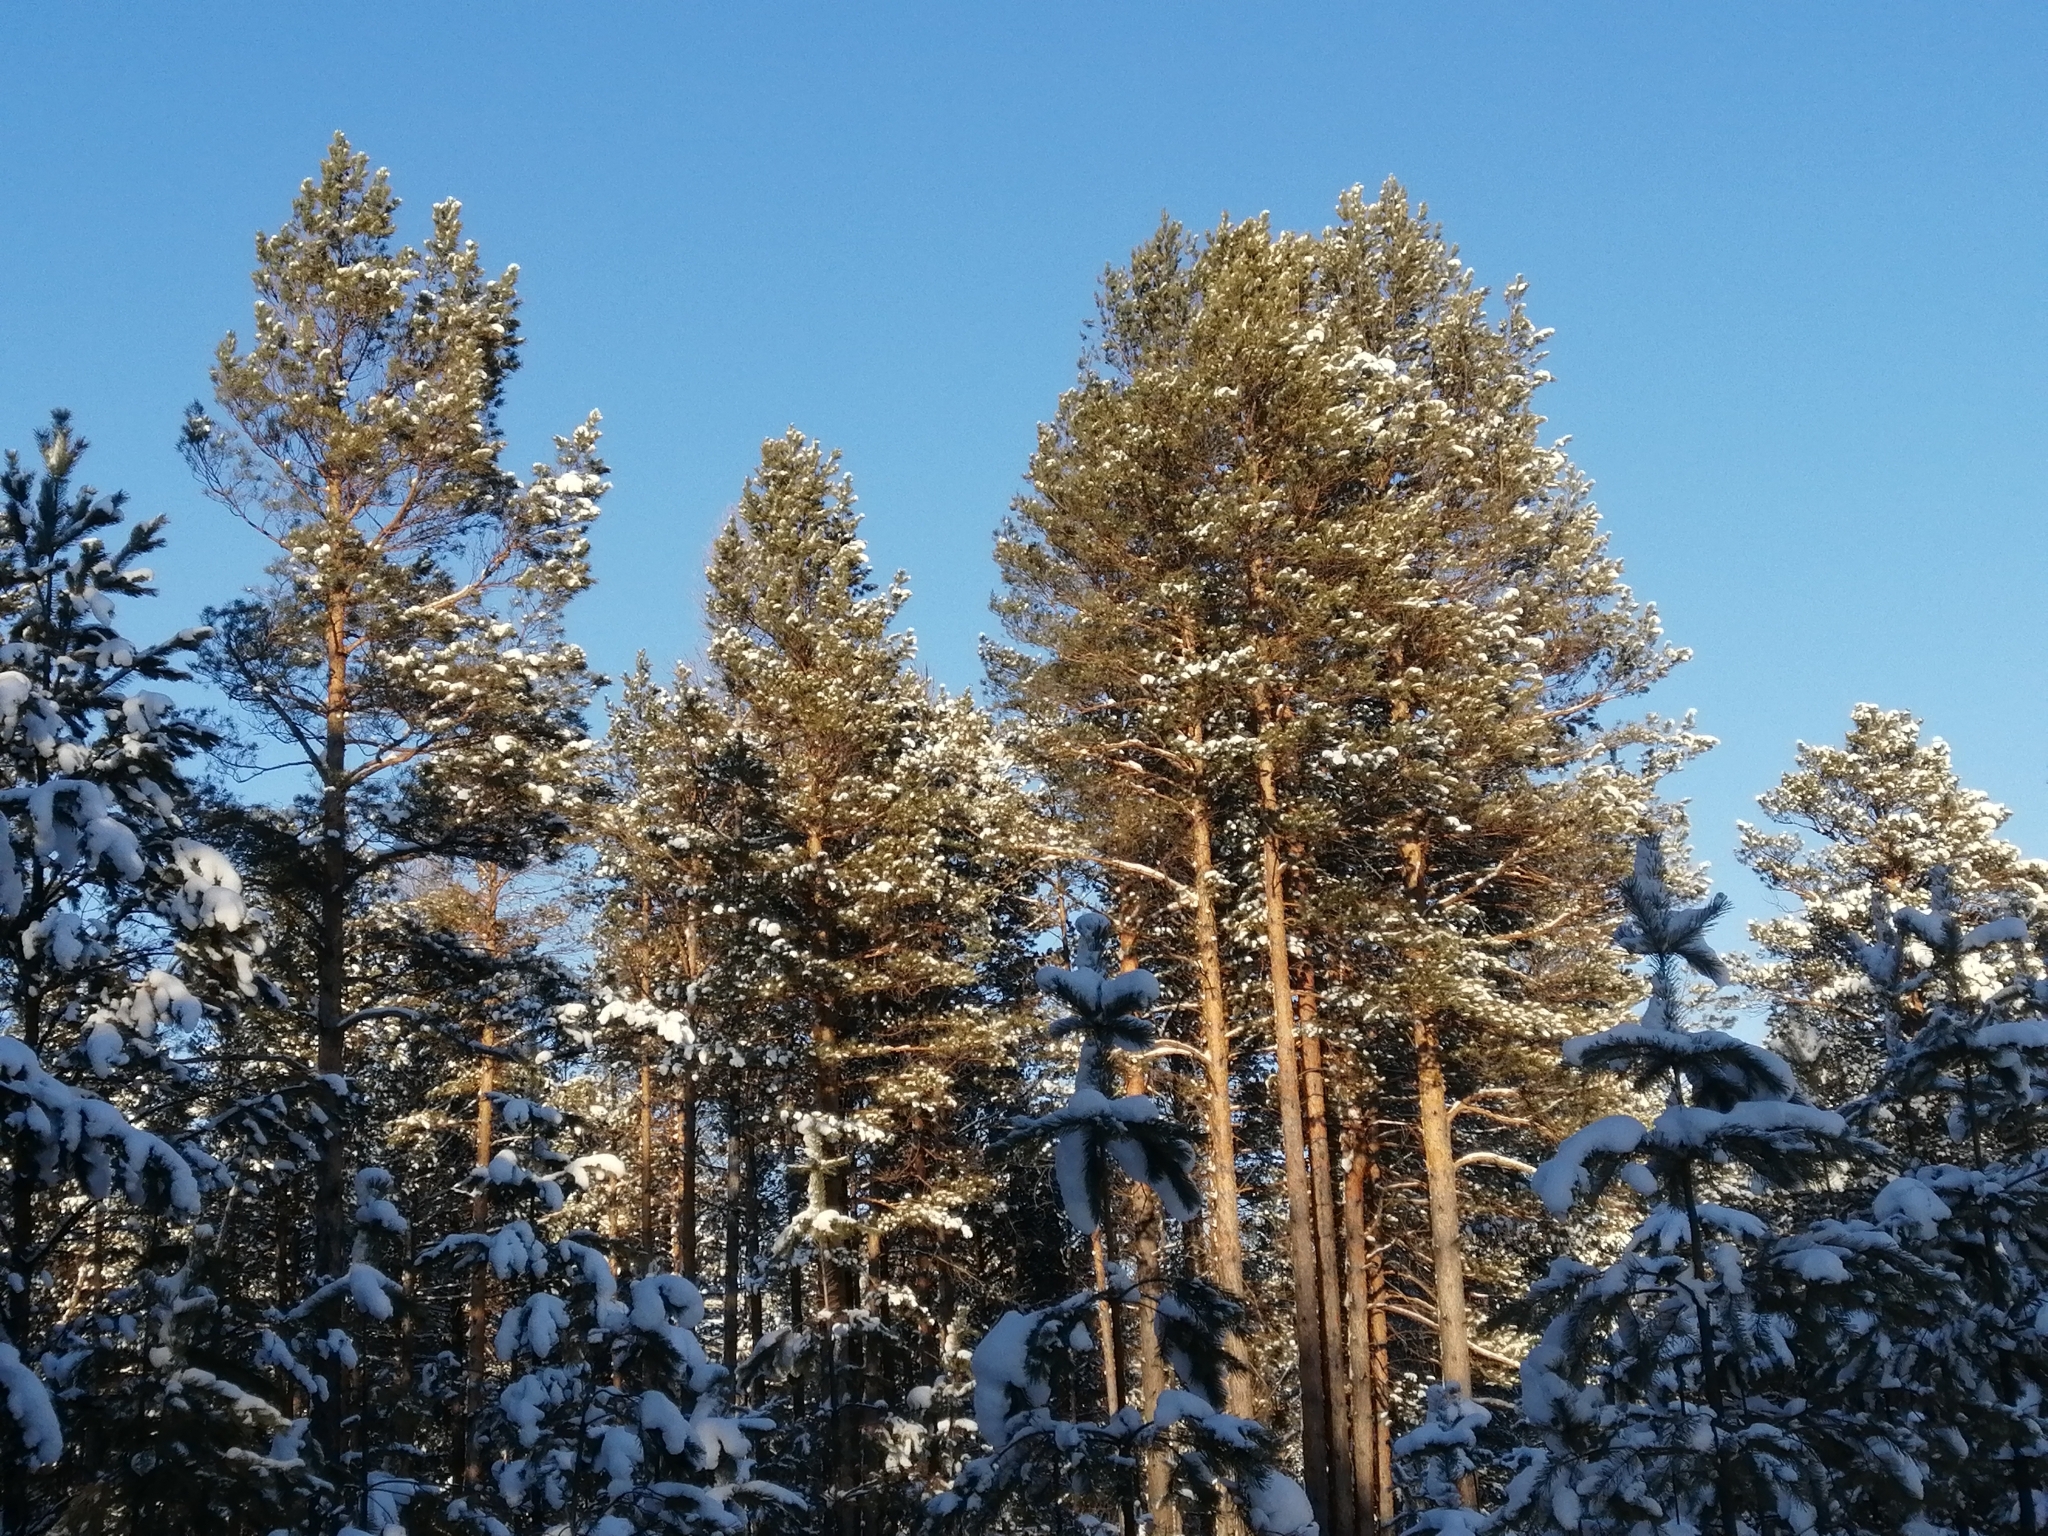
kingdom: Plantae
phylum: Tracheophyta
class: Pinopsida
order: Pinales
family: Pinaceae
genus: Pinus
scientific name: Pinus sylvestris
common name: Scots pine
